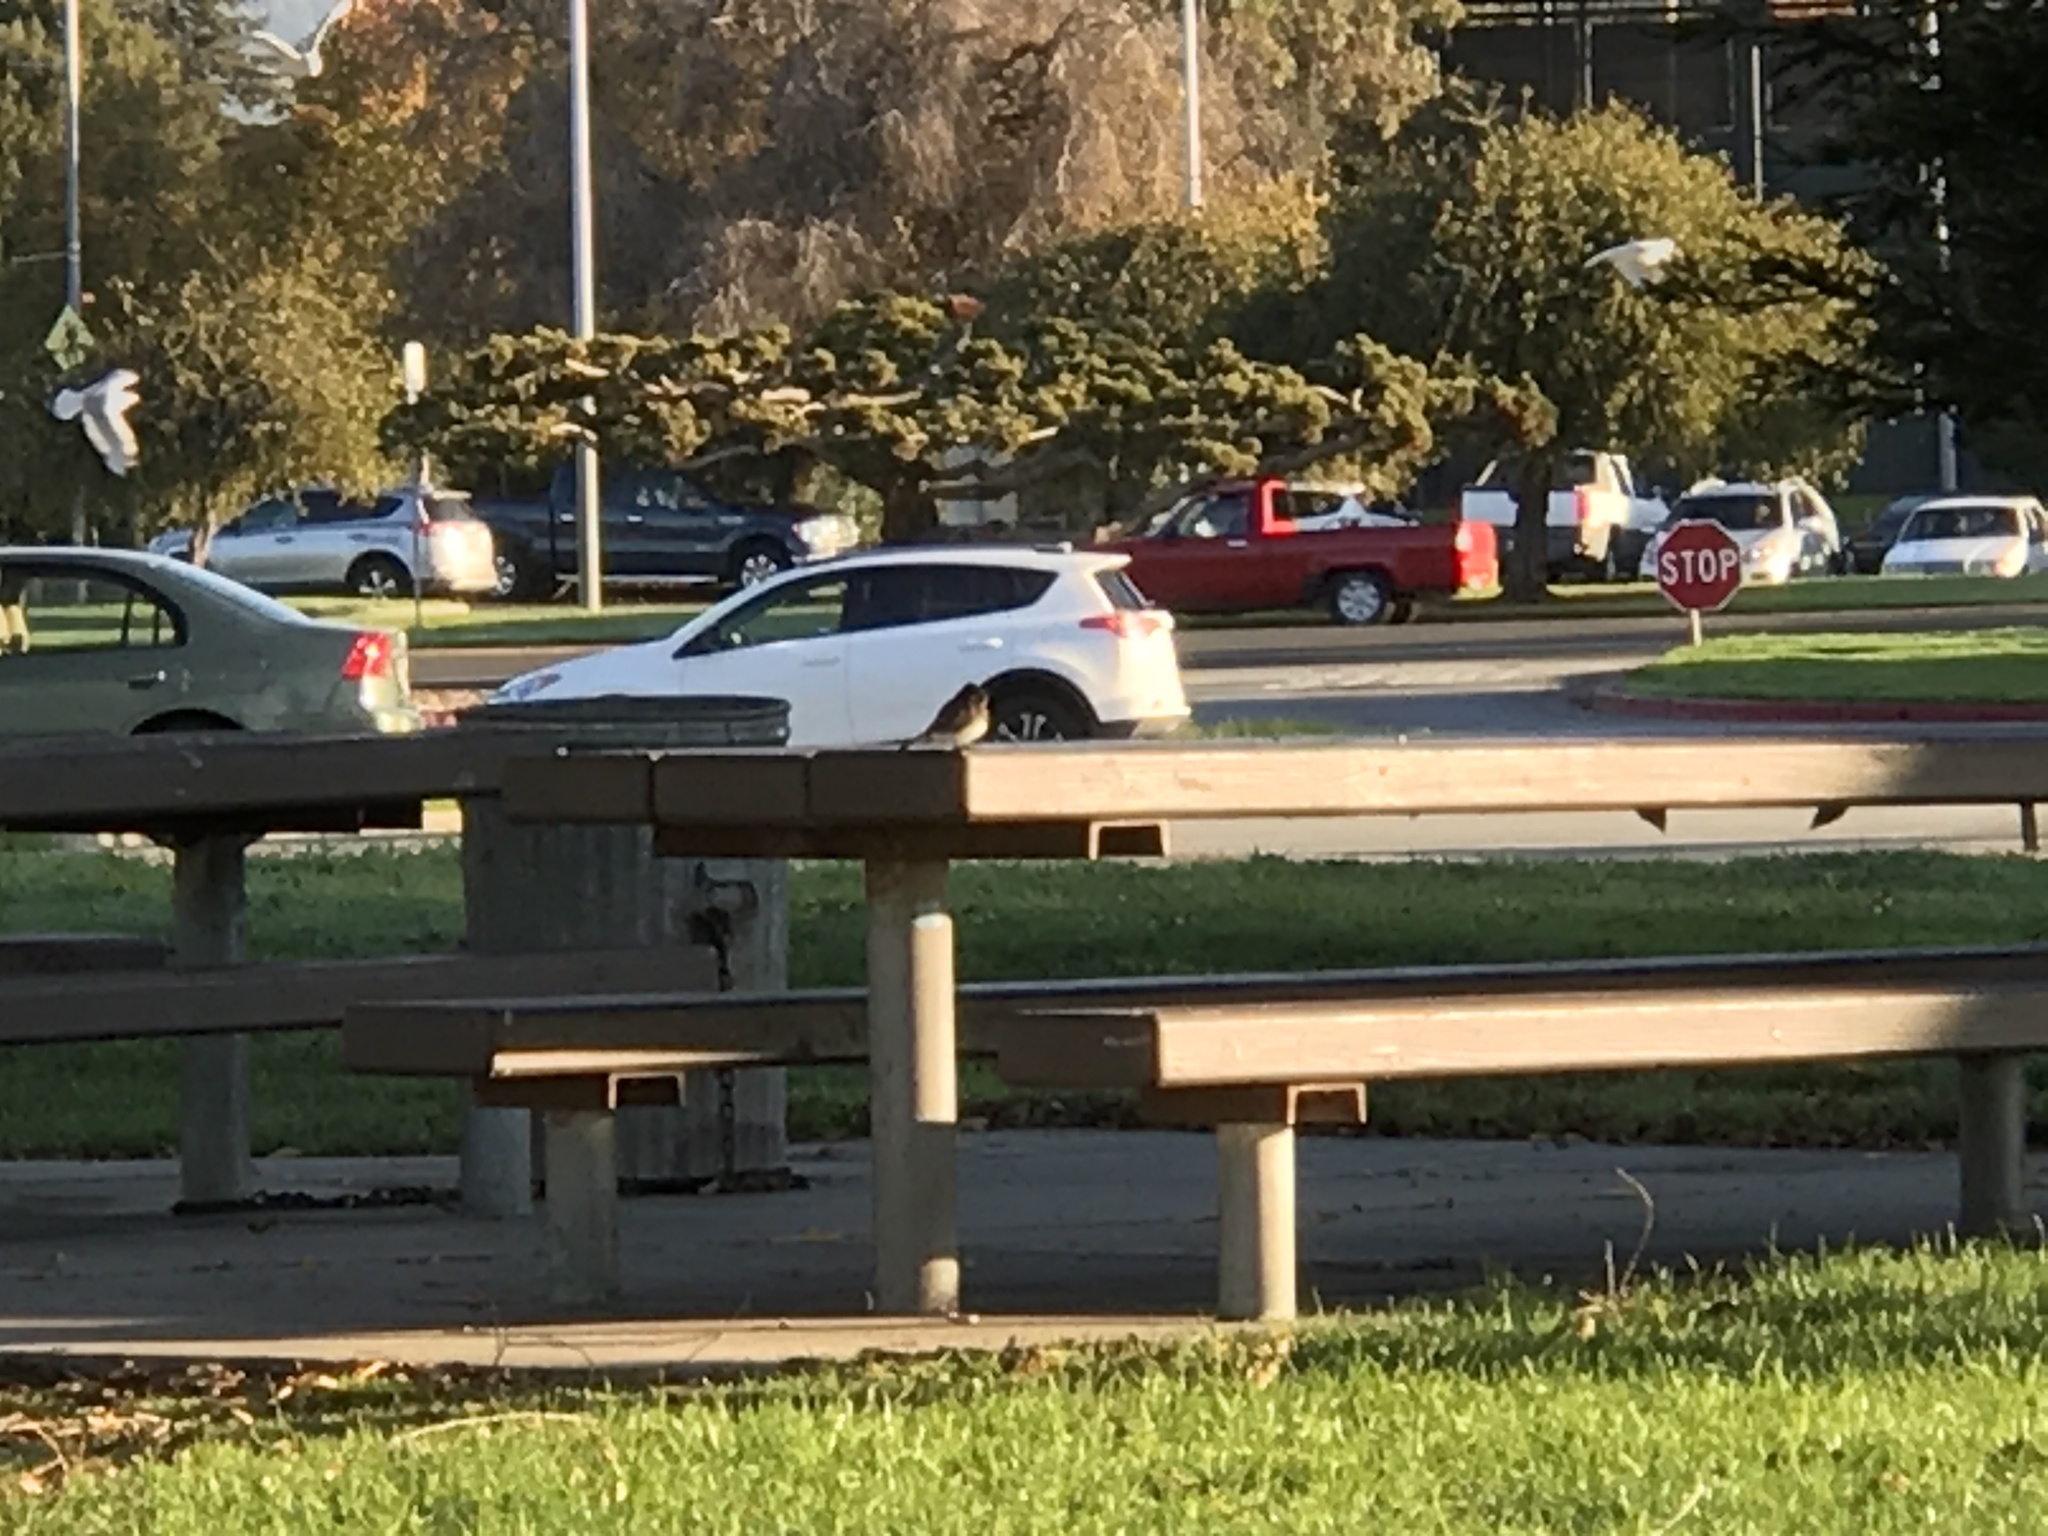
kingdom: Animalia
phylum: Chordata
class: Aves
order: Passeriformes
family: Tyrannidae
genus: Sayornis
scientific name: Sayornis nigricans
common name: Black phoebe
